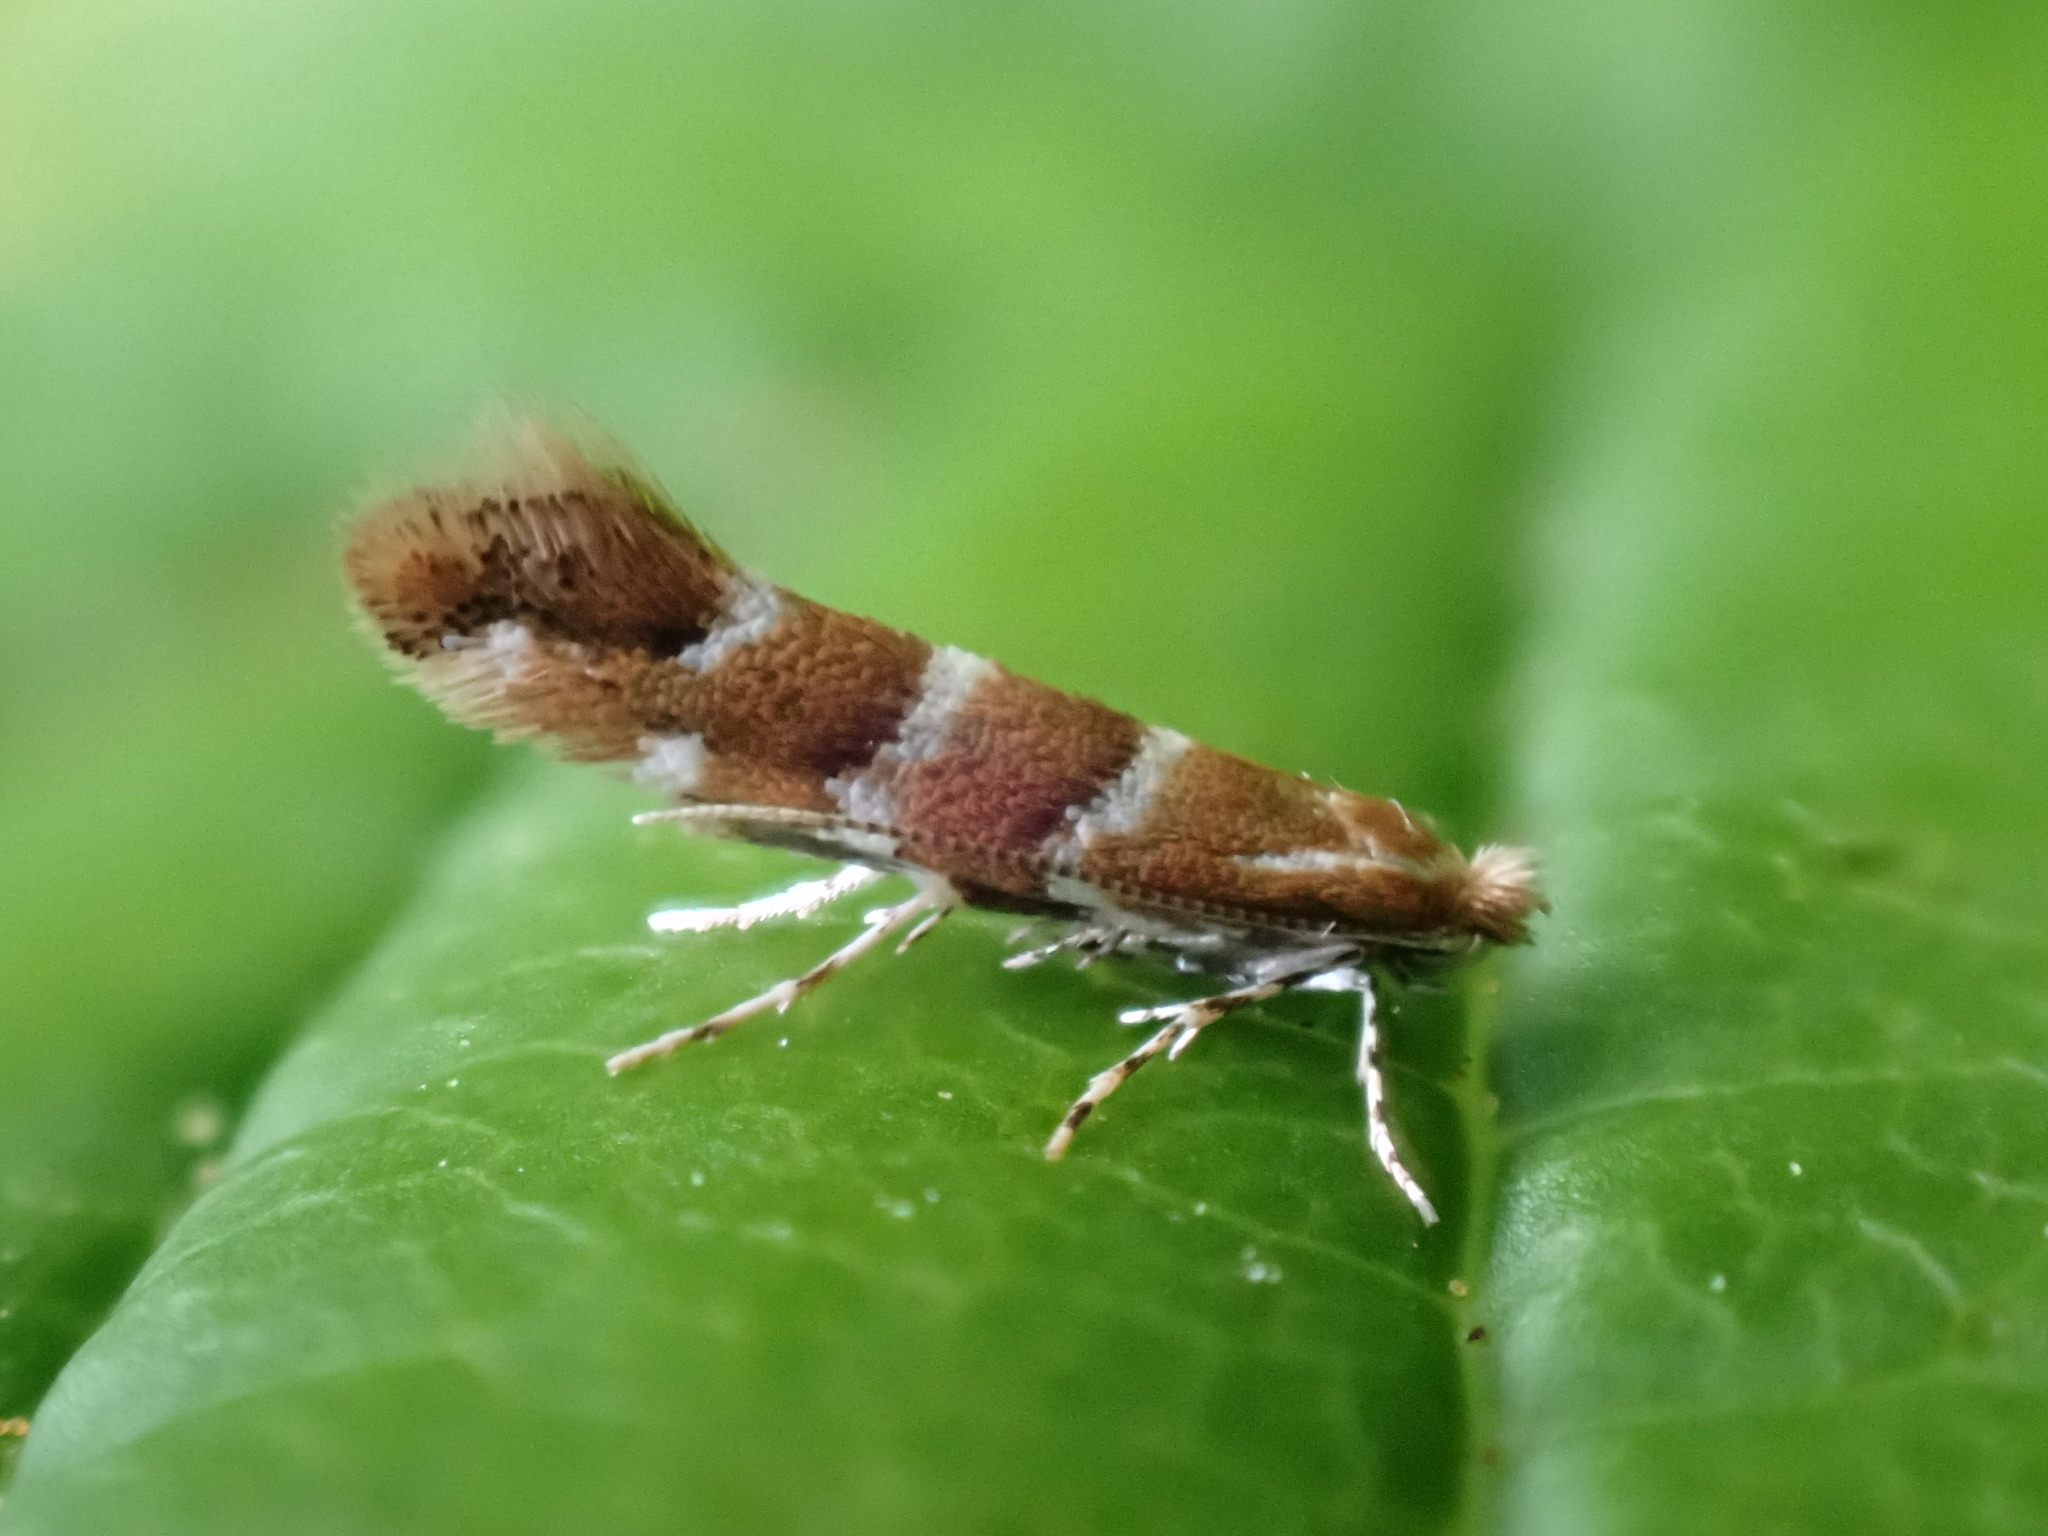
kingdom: Animalia
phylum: Arthropoda
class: Insecta
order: Lepidoptera
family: Gracillariidae
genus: Cameraria
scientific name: Cameraria ohridella
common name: Horse-chestnut leaf-miner
